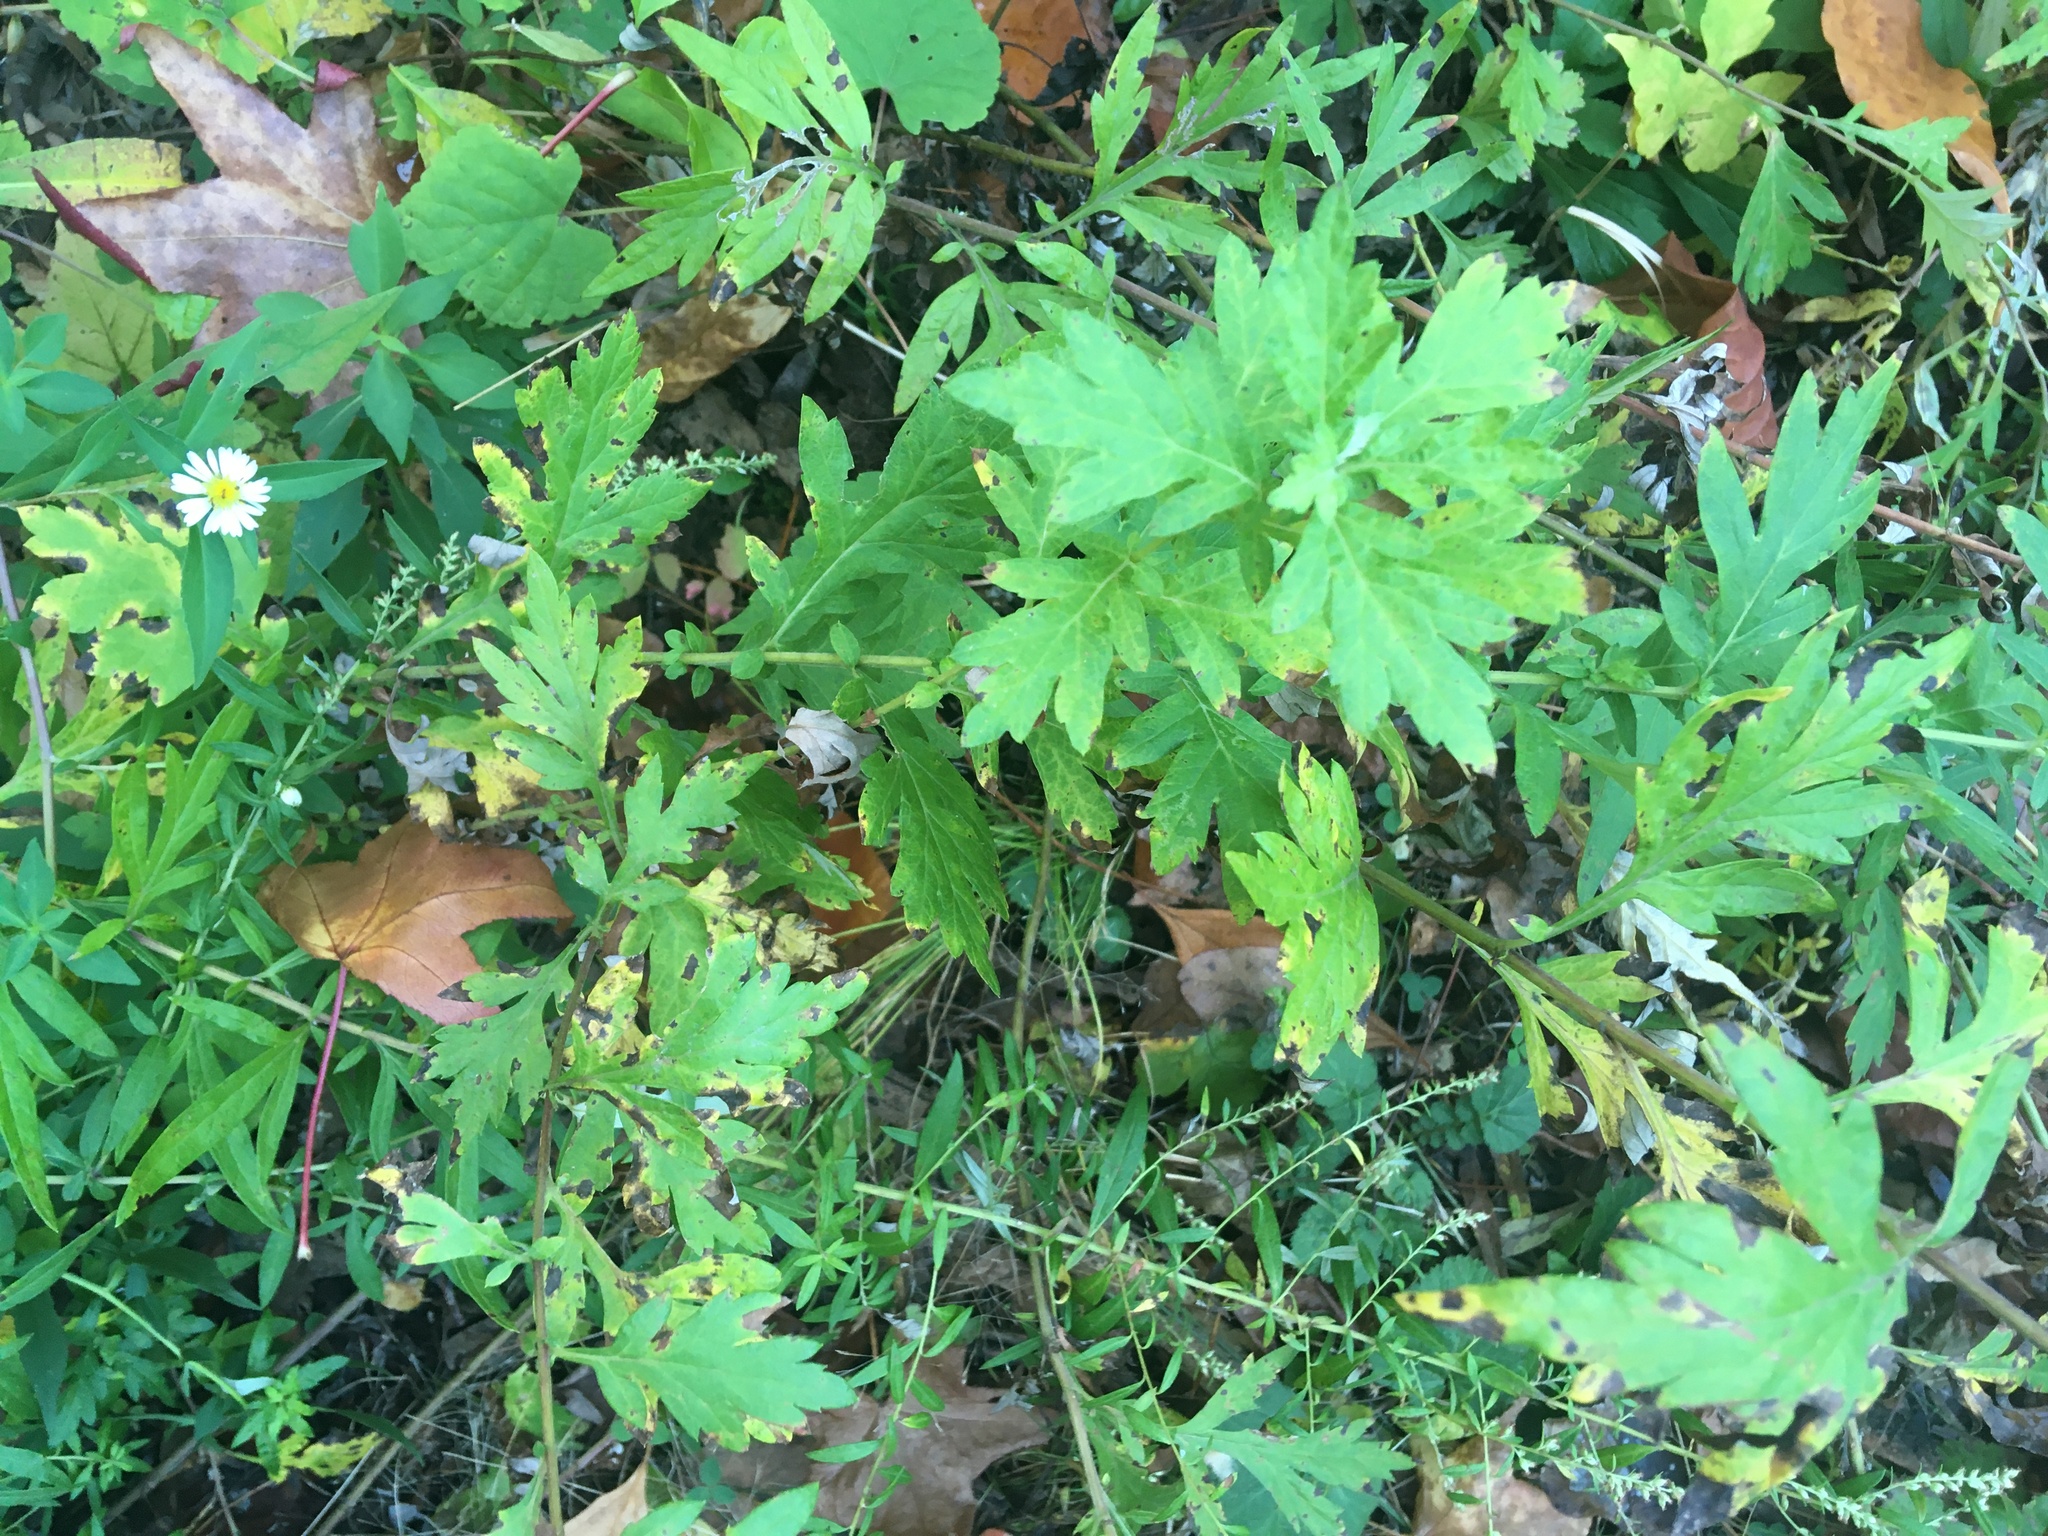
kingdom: Plantae
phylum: Tracheophyta
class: Magnoliopsida
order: Asterales
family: Asteraceae
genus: Artemisia
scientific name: Artemisia vulgaris
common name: Mugwort
